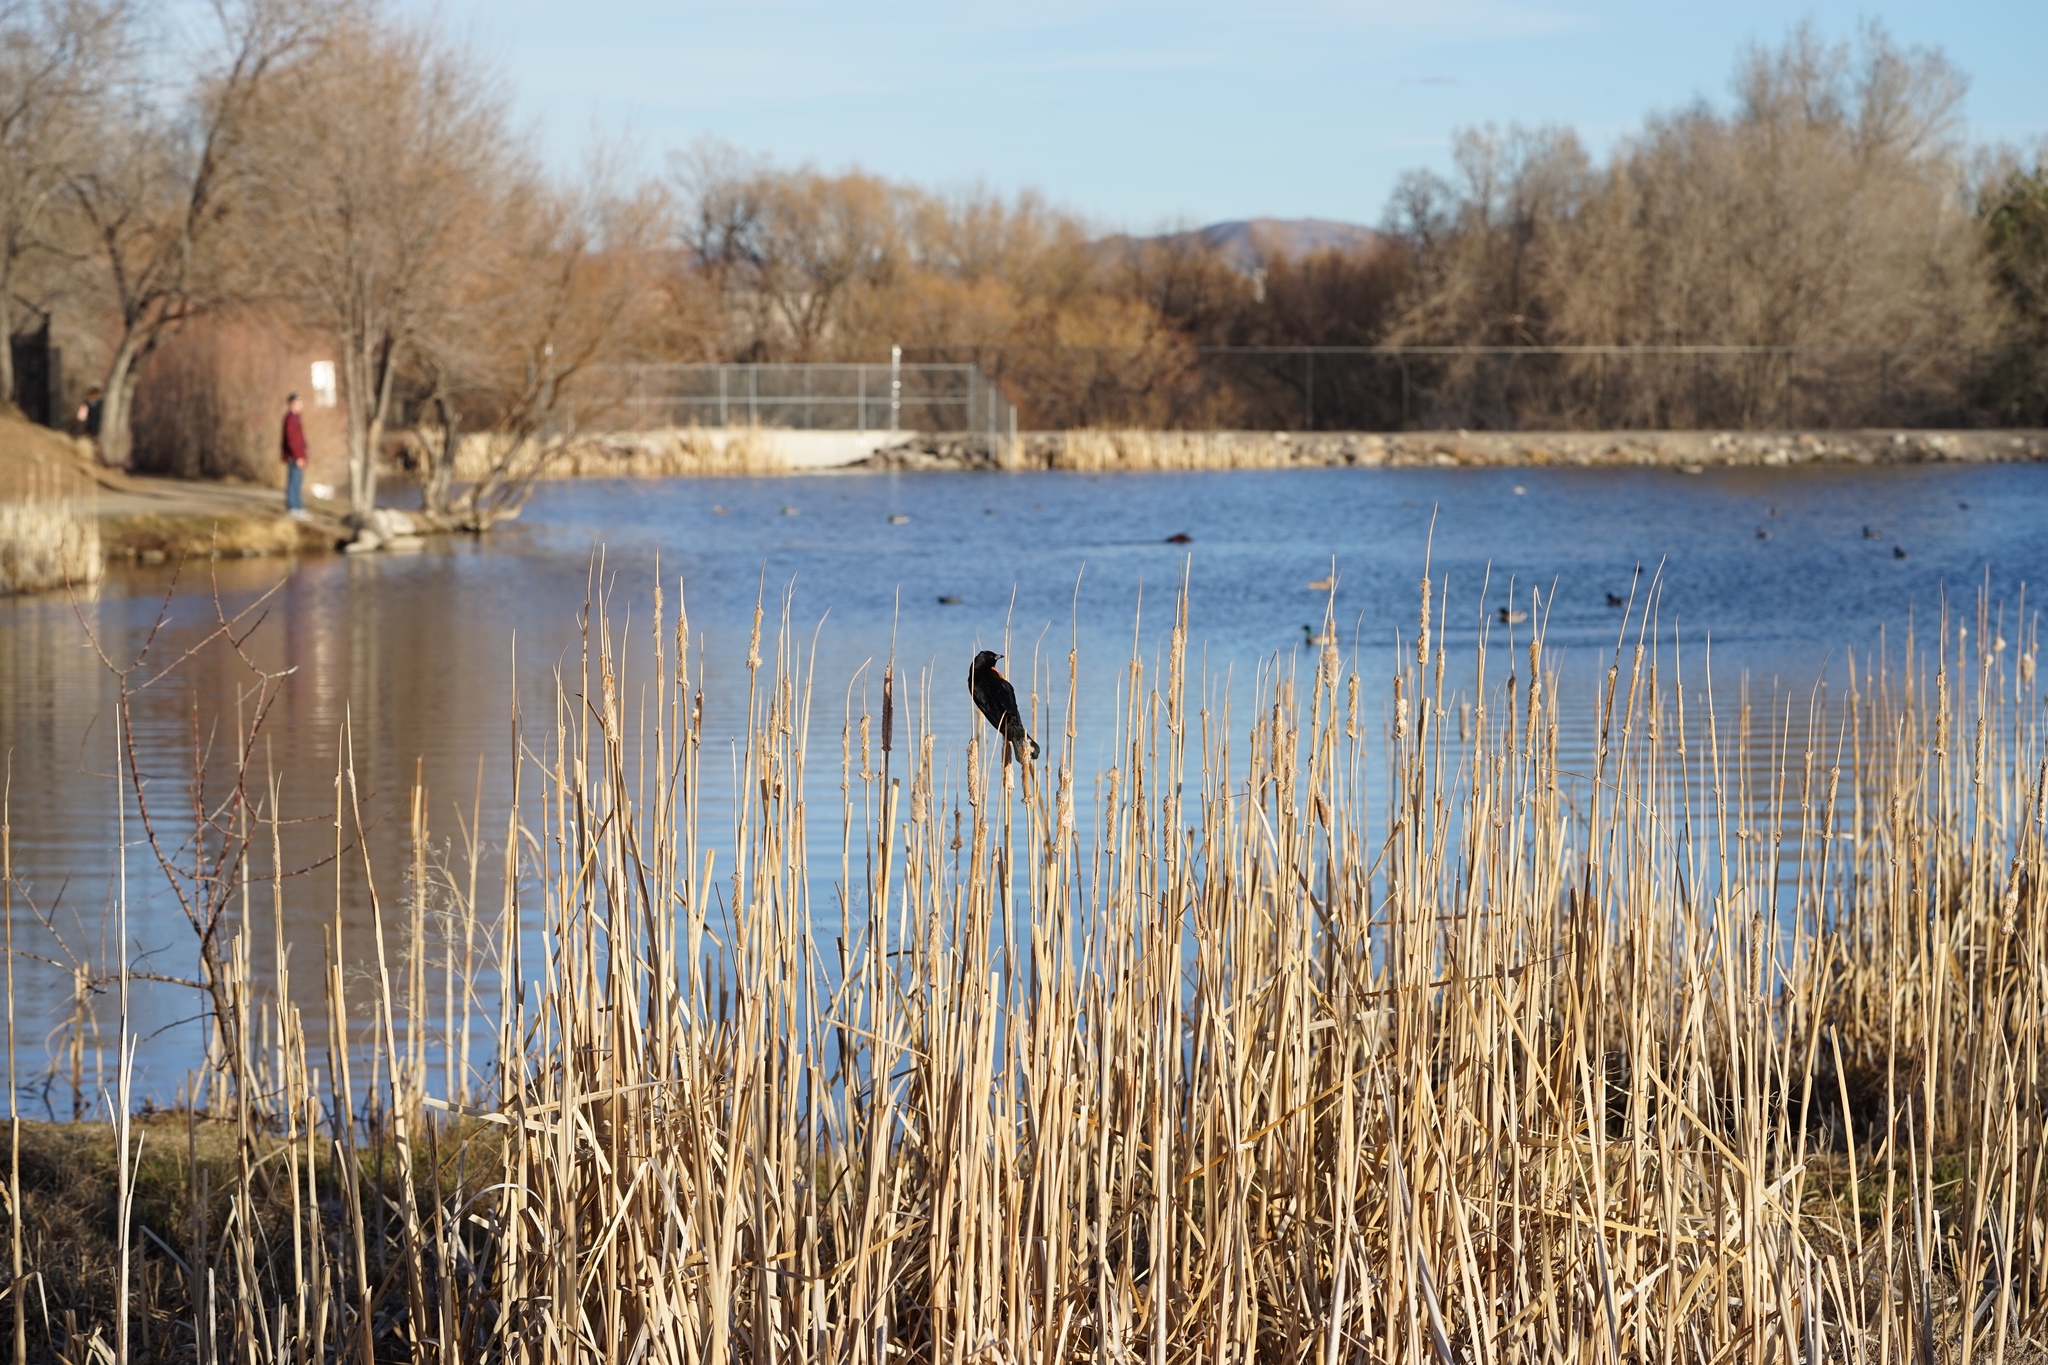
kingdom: Animalia
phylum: Chordata
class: Aves
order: Passeriformes
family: Icteridae
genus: Agelaius
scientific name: Agelaius phoeniceus
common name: Red-winged blackbird
